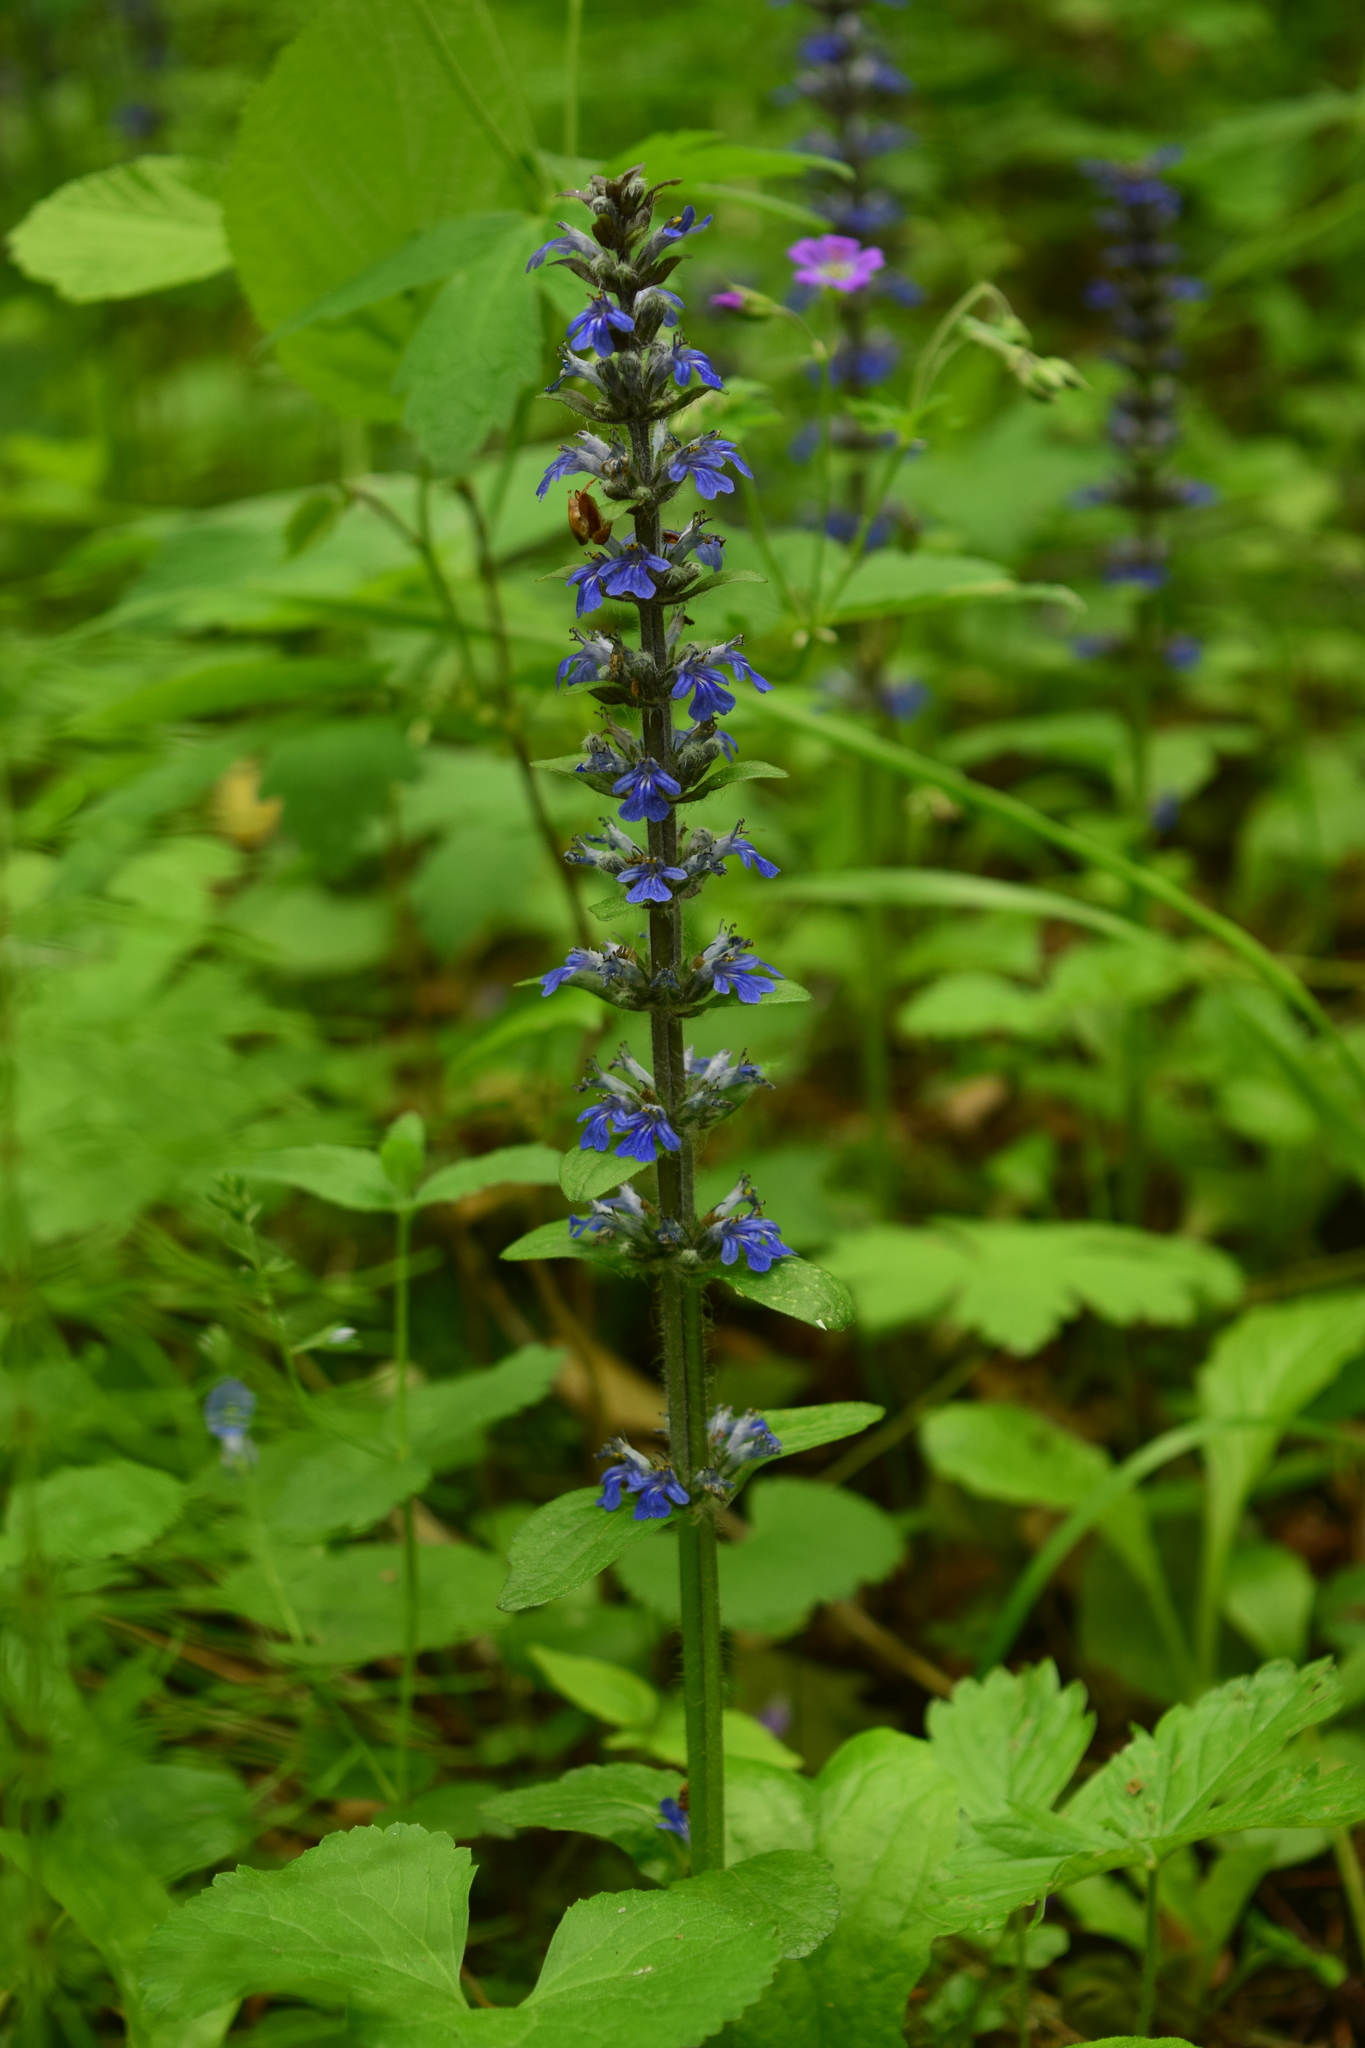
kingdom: Plantae
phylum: Tracheophyta
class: Magnoliopsida
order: Lamiales
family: Lamiaceae
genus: Ajuga
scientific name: Ajuga reptans
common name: Bugle
